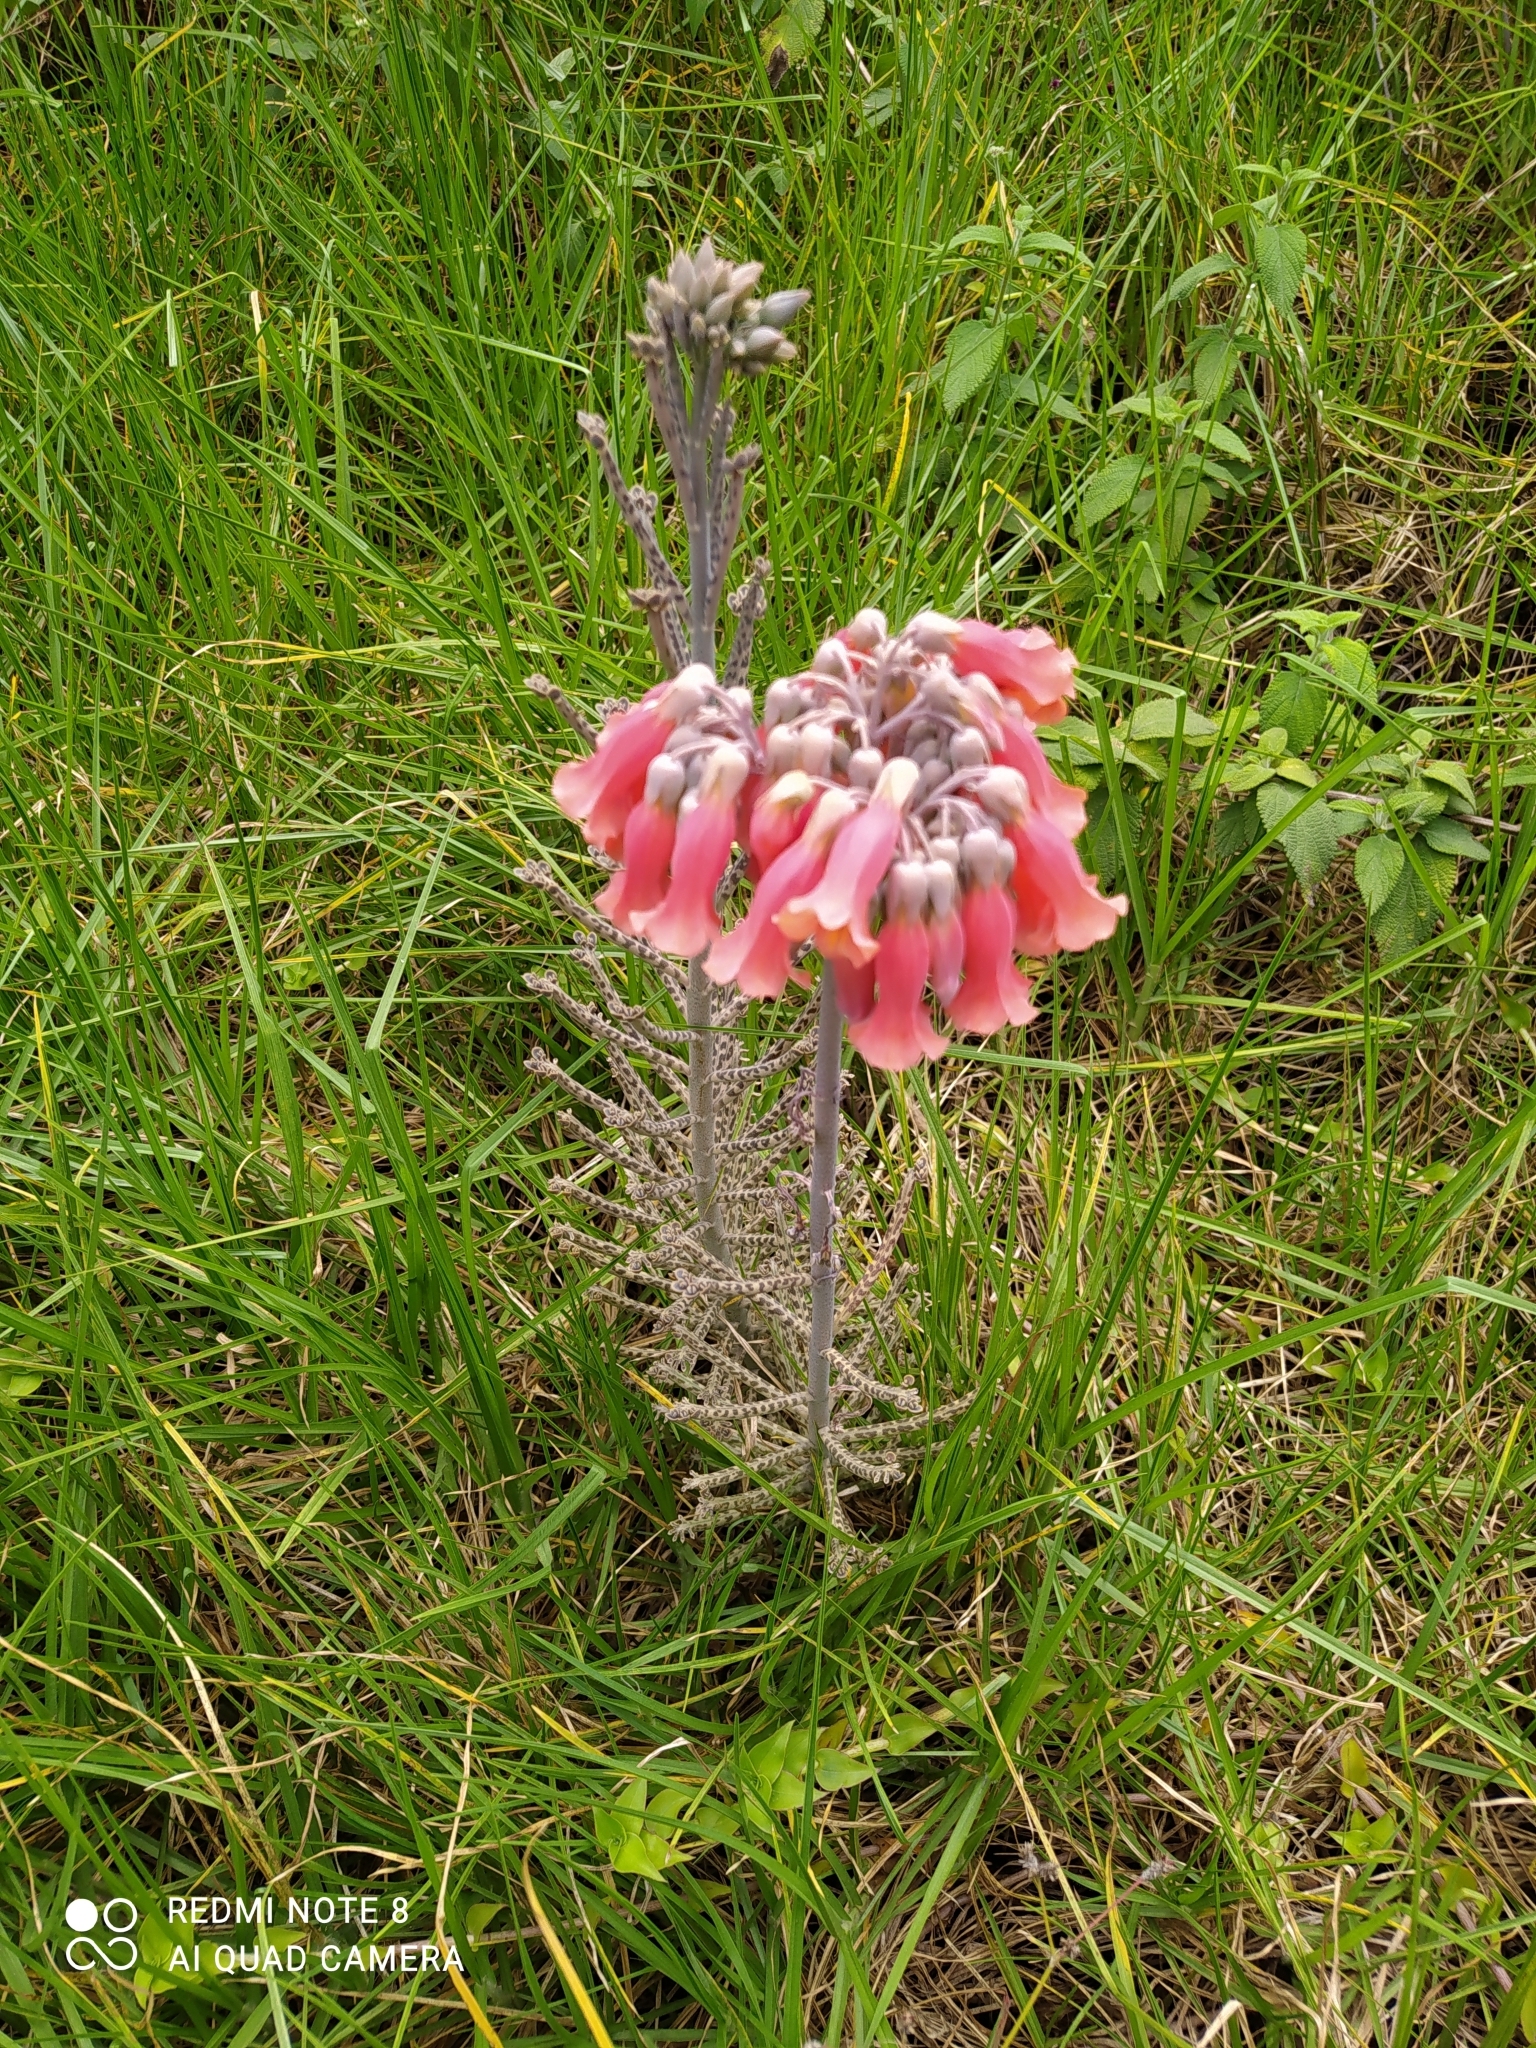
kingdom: Plantae
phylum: Tracheophyta
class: Magnoliopsida
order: Saxifragales
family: Crassulaceae
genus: Kalanchoe
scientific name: Kalanchoe delagoensis
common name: Chandelier plant
